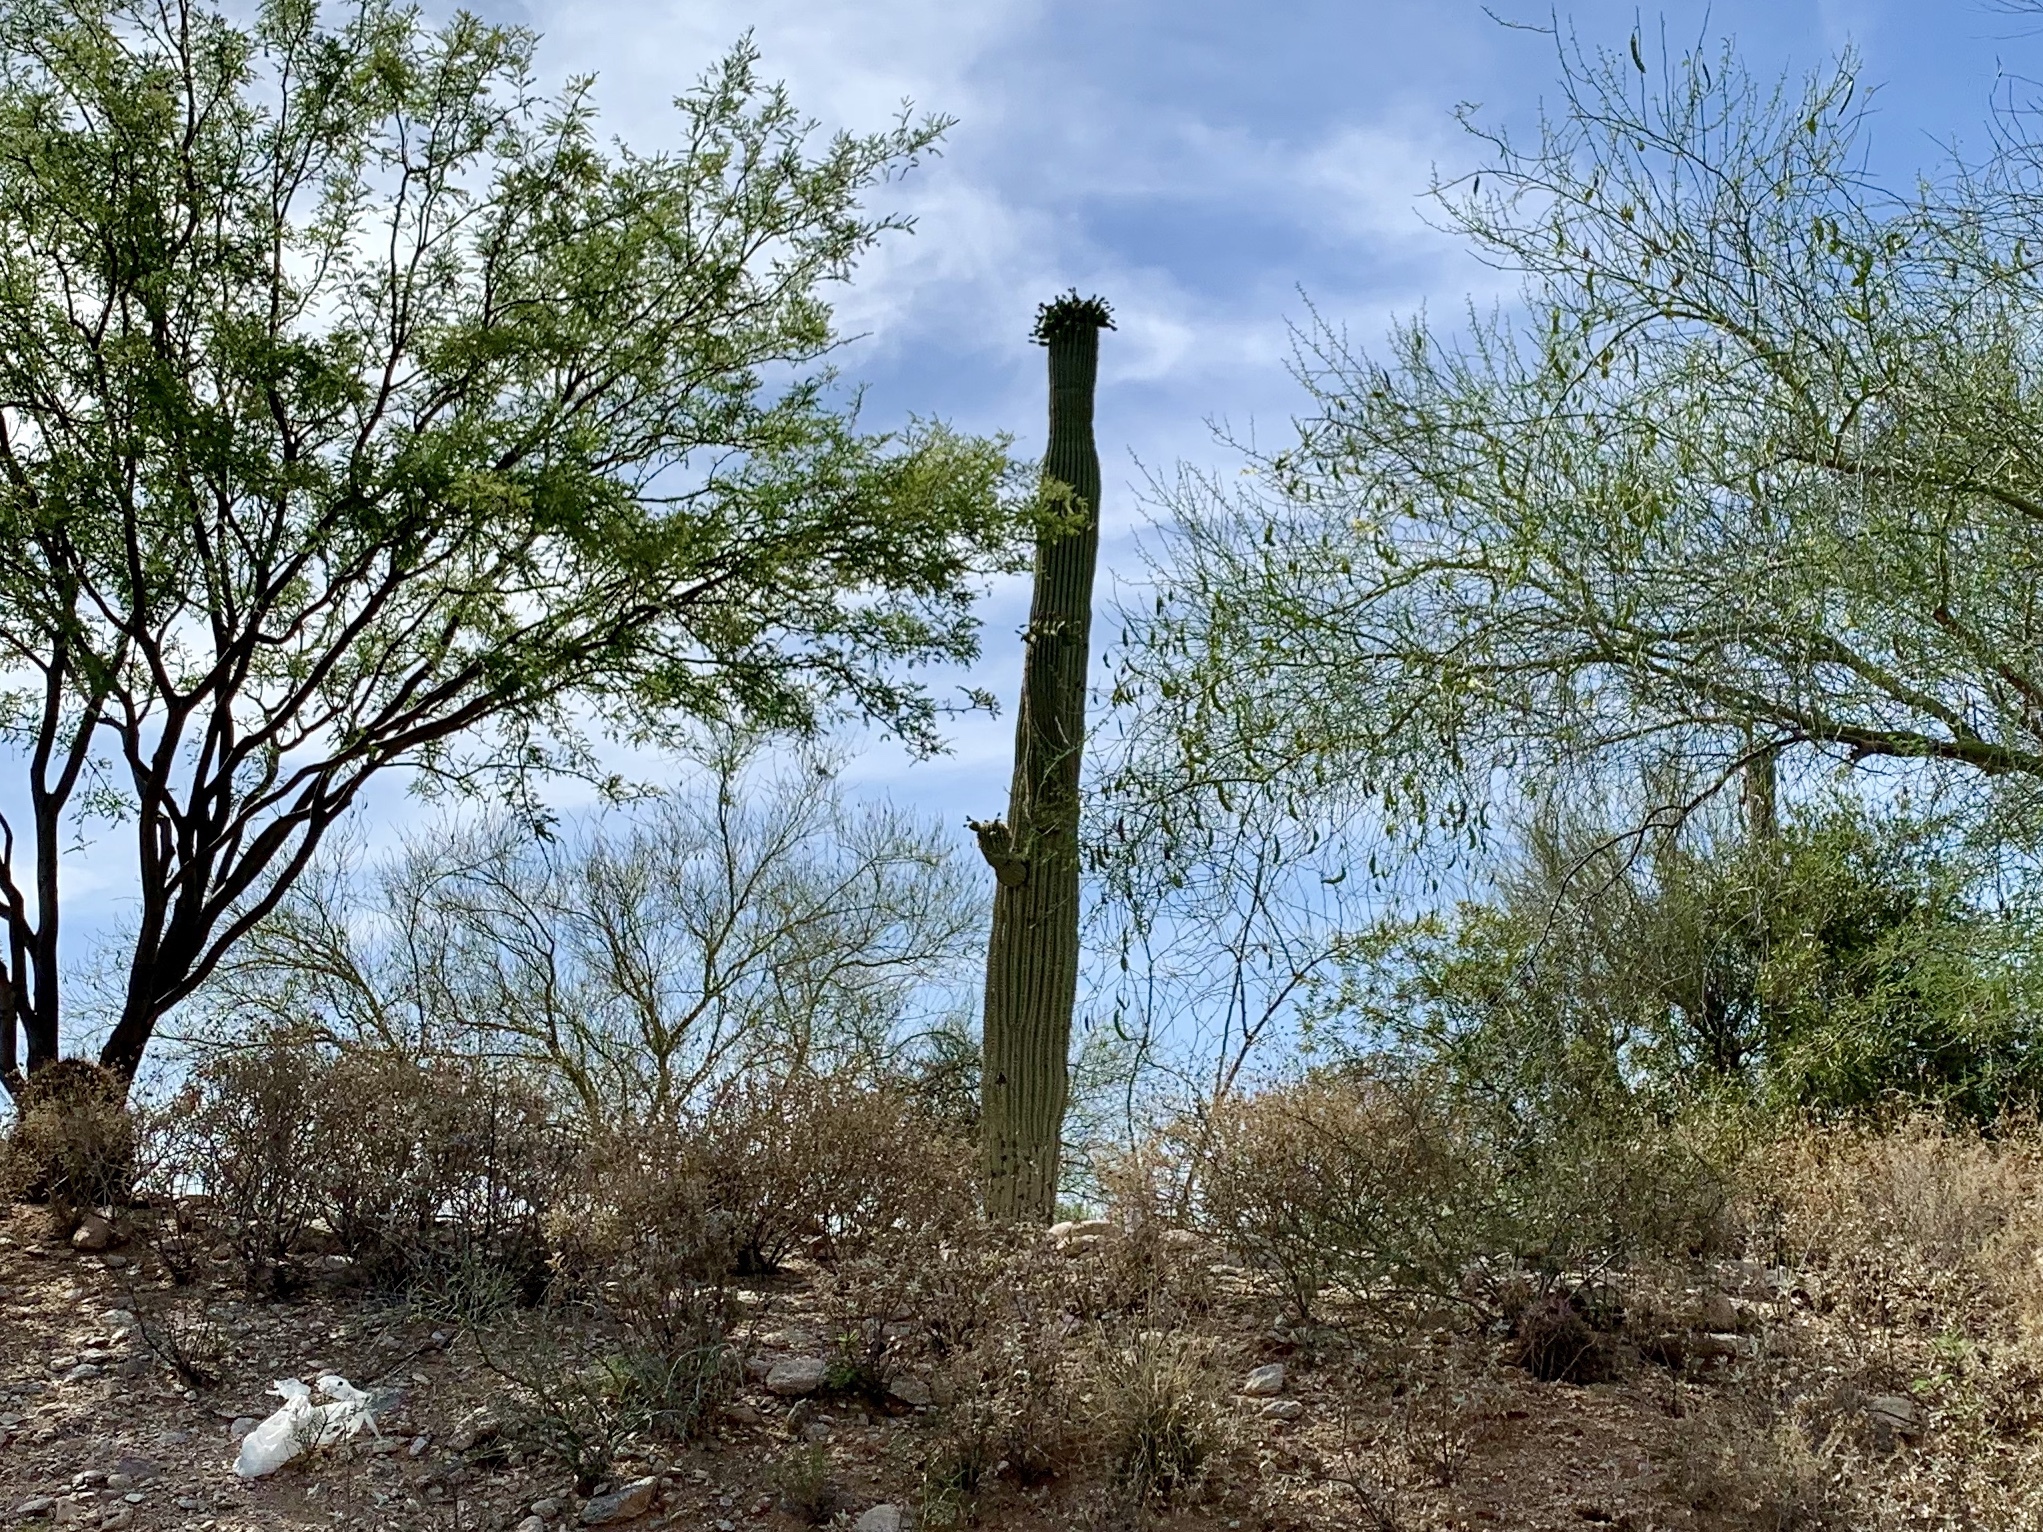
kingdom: Plantae
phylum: Tracheophyta
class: Magnoliopsida
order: Caryophyllales
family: Cactaceae
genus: Carnegiea
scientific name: Carnegiea gigantea
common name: Saguaro
